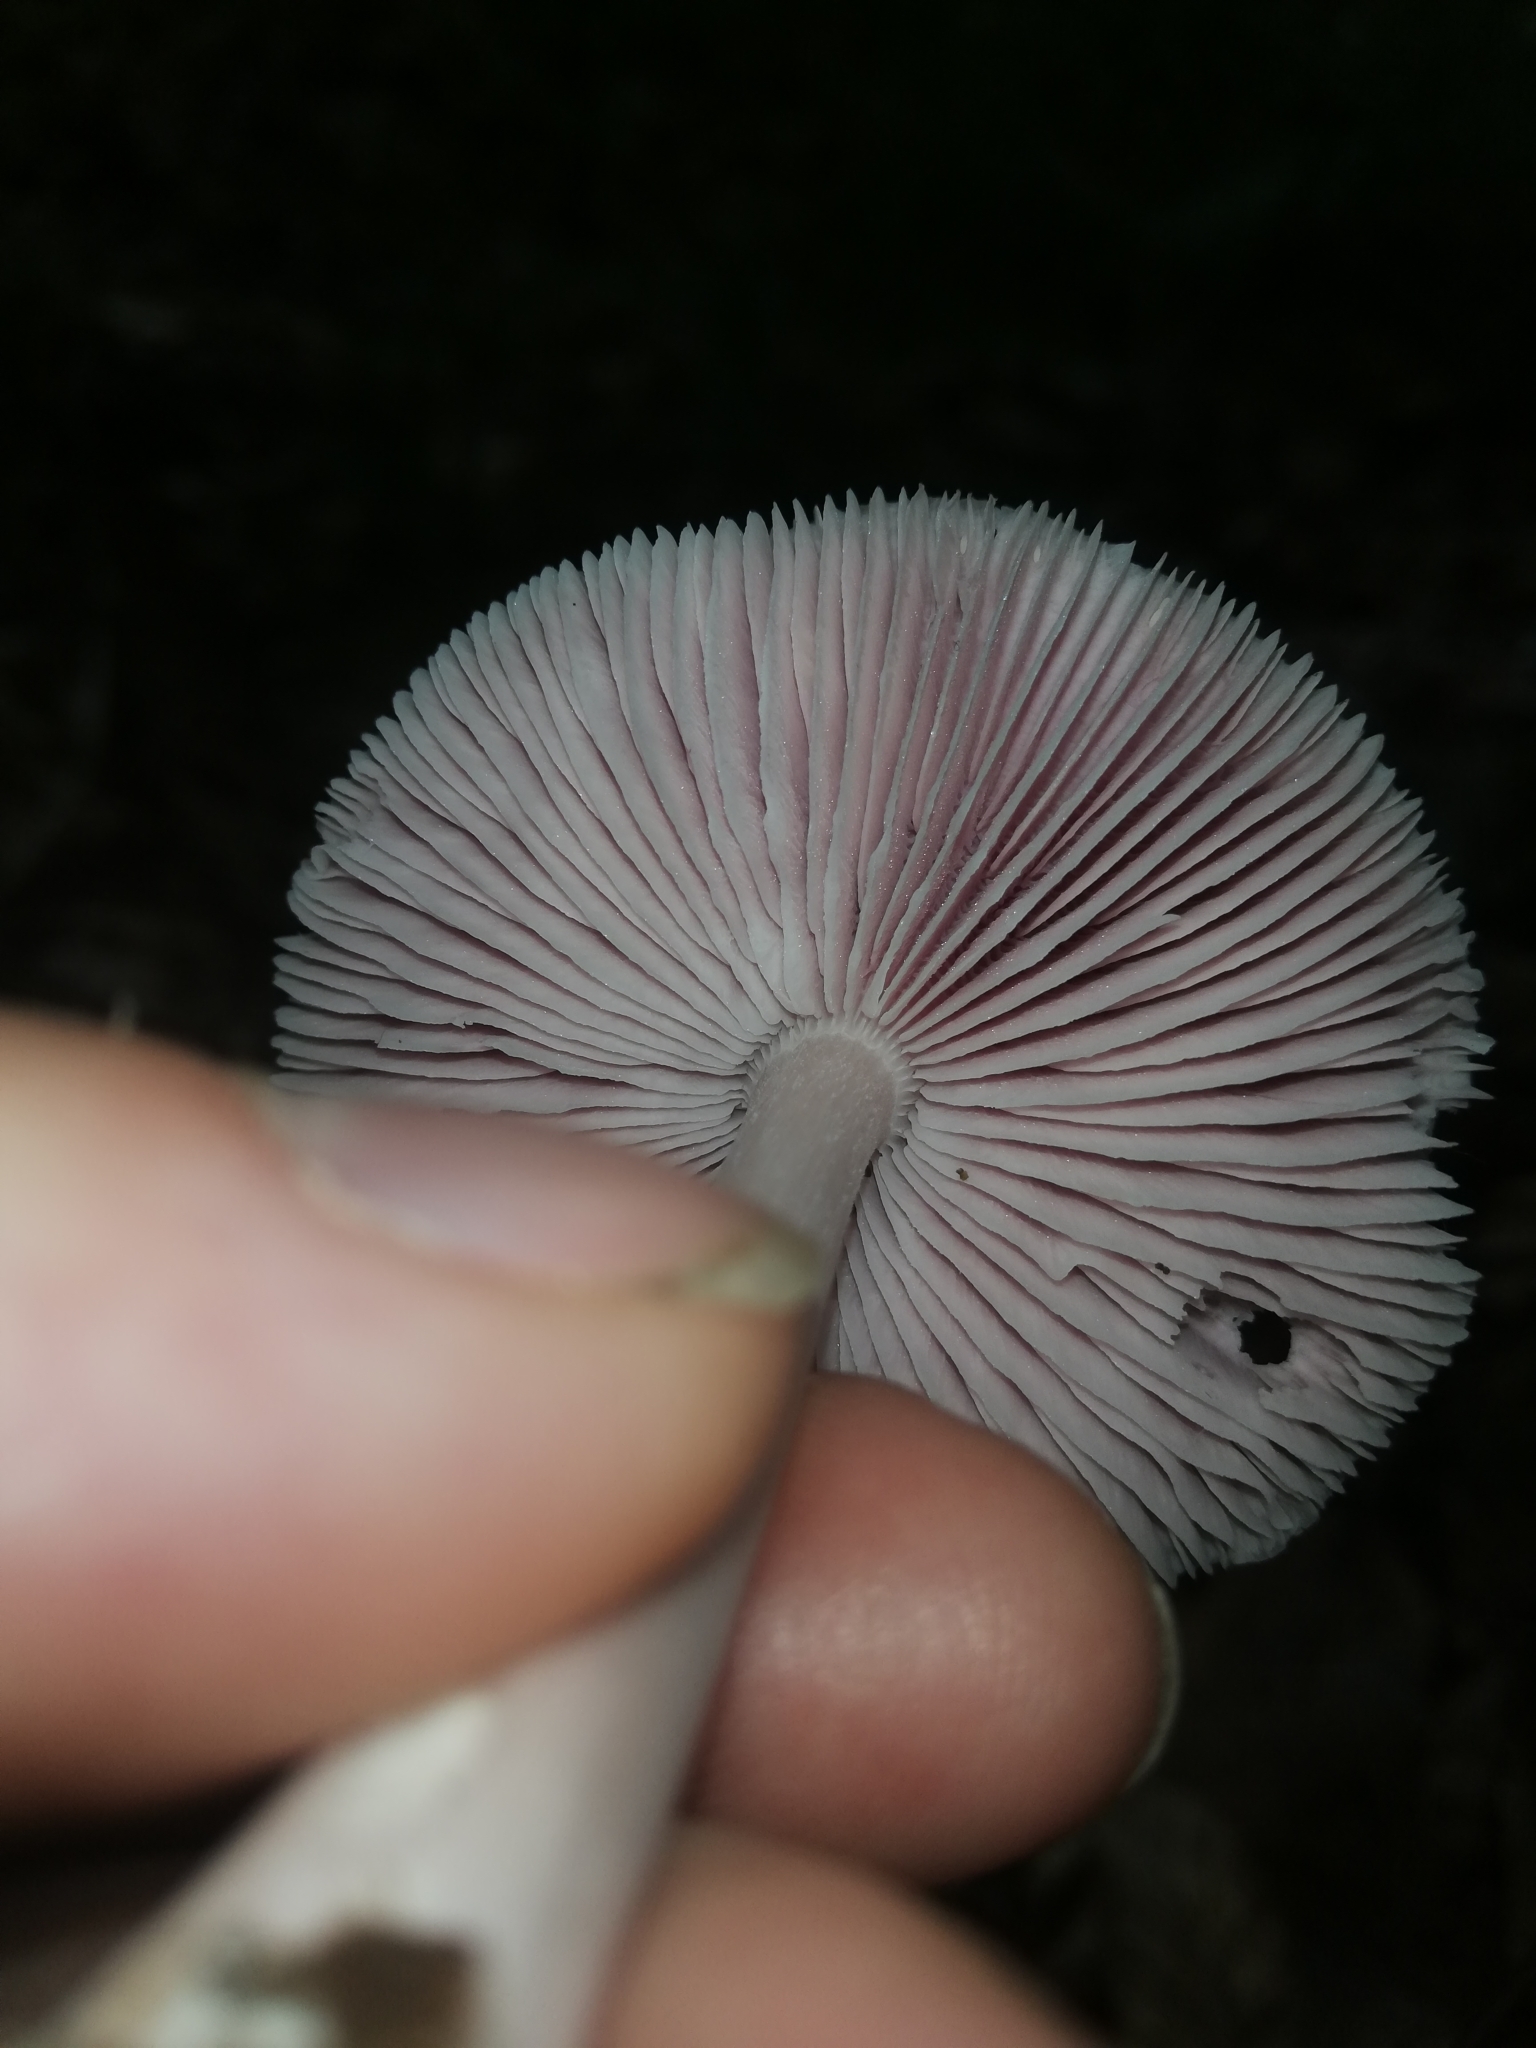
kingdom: Fungi
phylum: Basidiomycota
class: Agaricomycetes
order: Agaricales
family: Mycenaceae
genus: Mycena
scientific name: Mycena rosea
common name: Rosy bonnet
